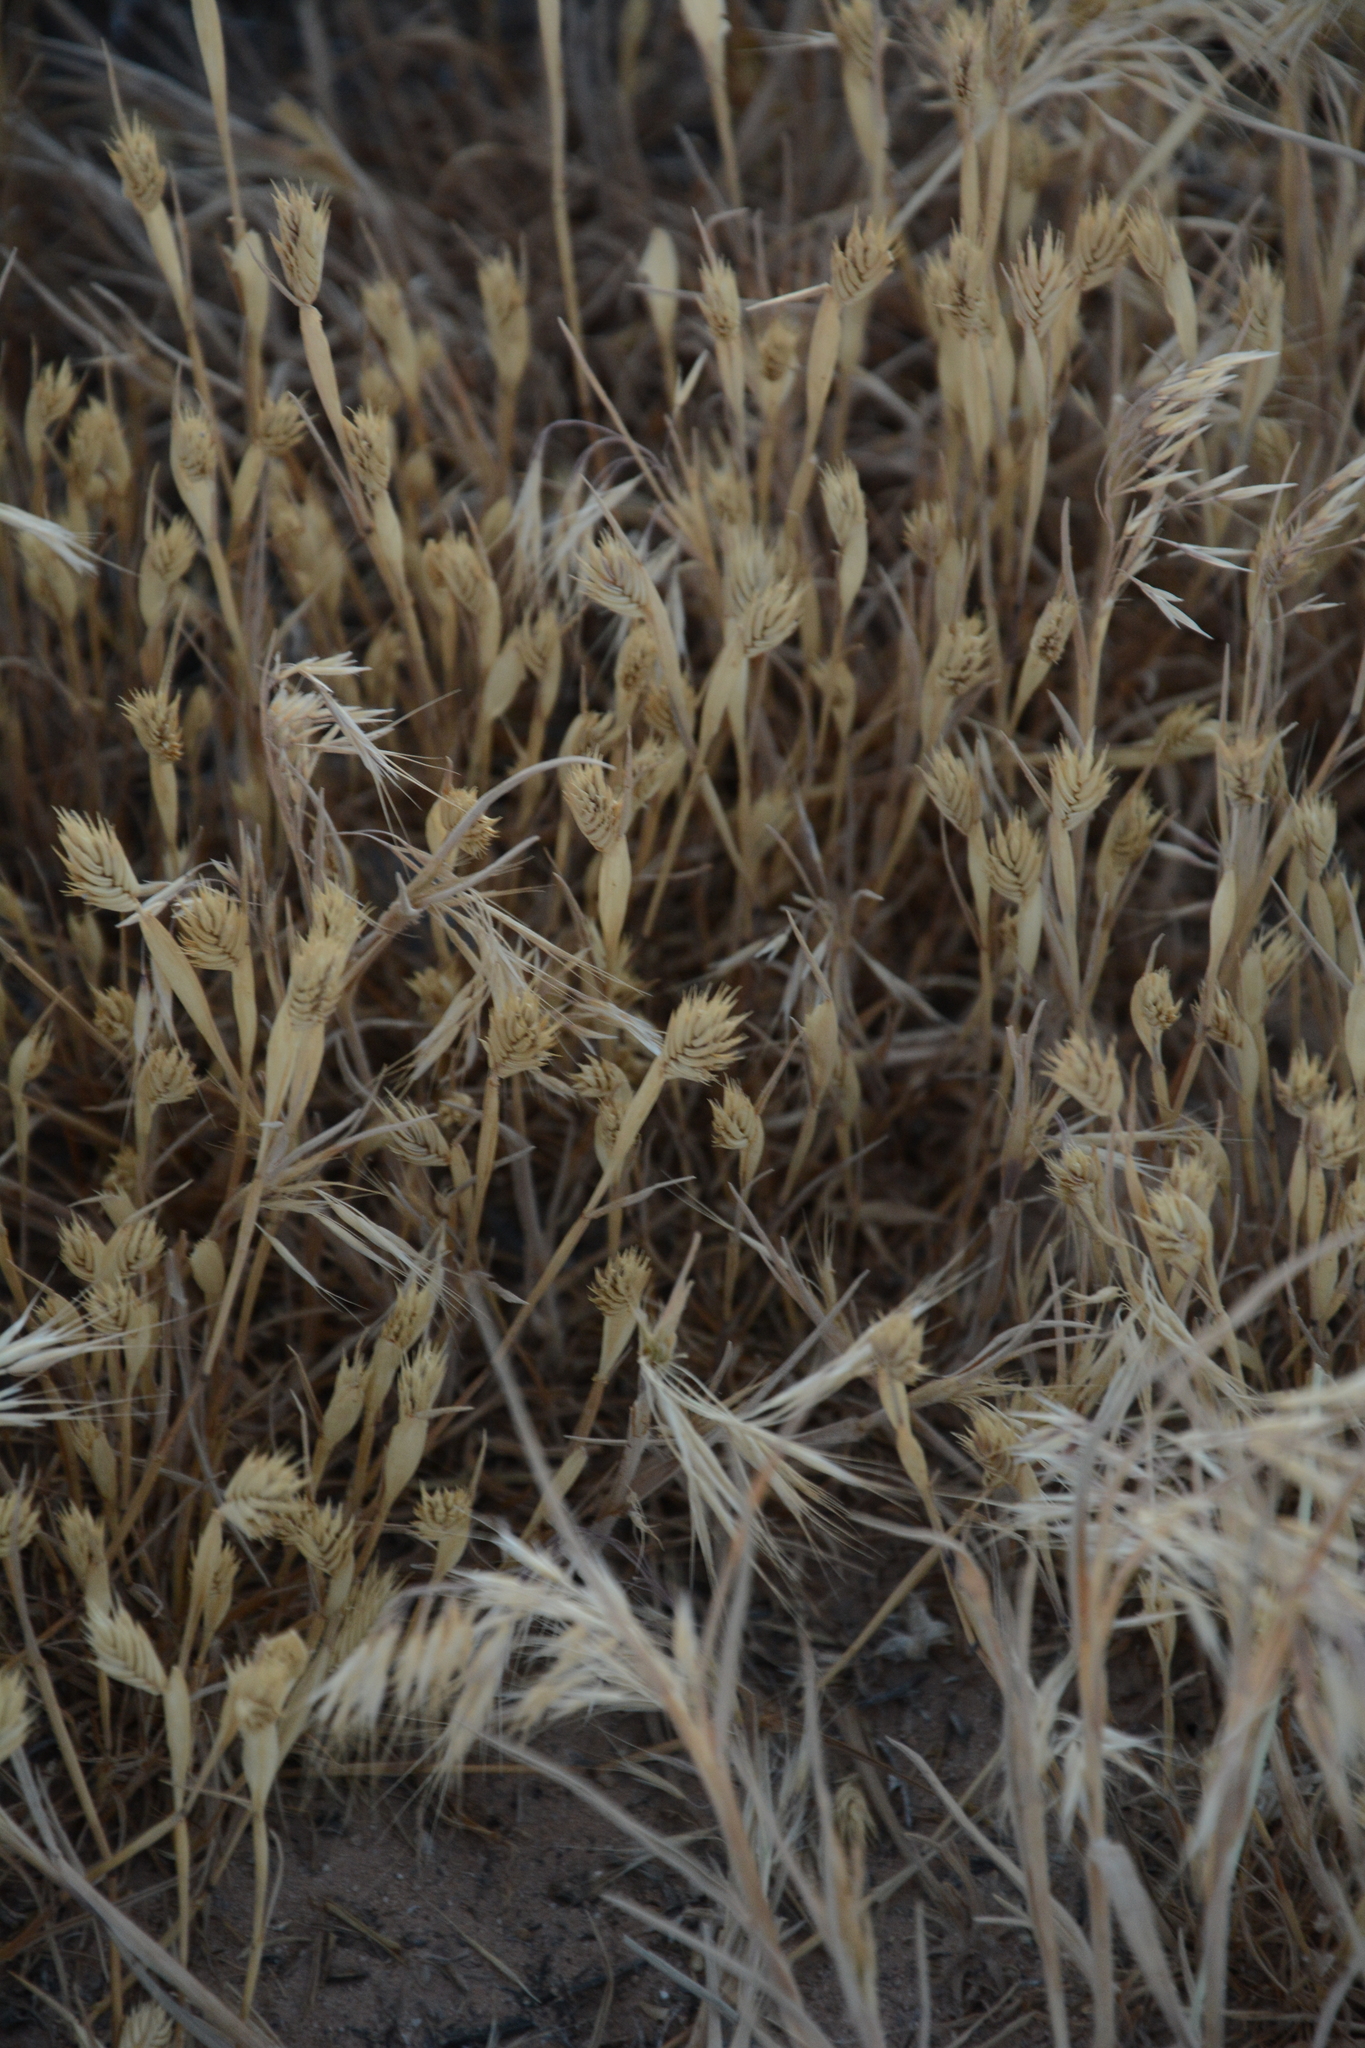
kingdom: Plantae
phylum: Tracheophyta
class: Liliopsida
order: Poales
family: Poaceae
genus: Eremopyrum
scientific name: Eremopyrum triticeum
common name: Annual wheatgrass
